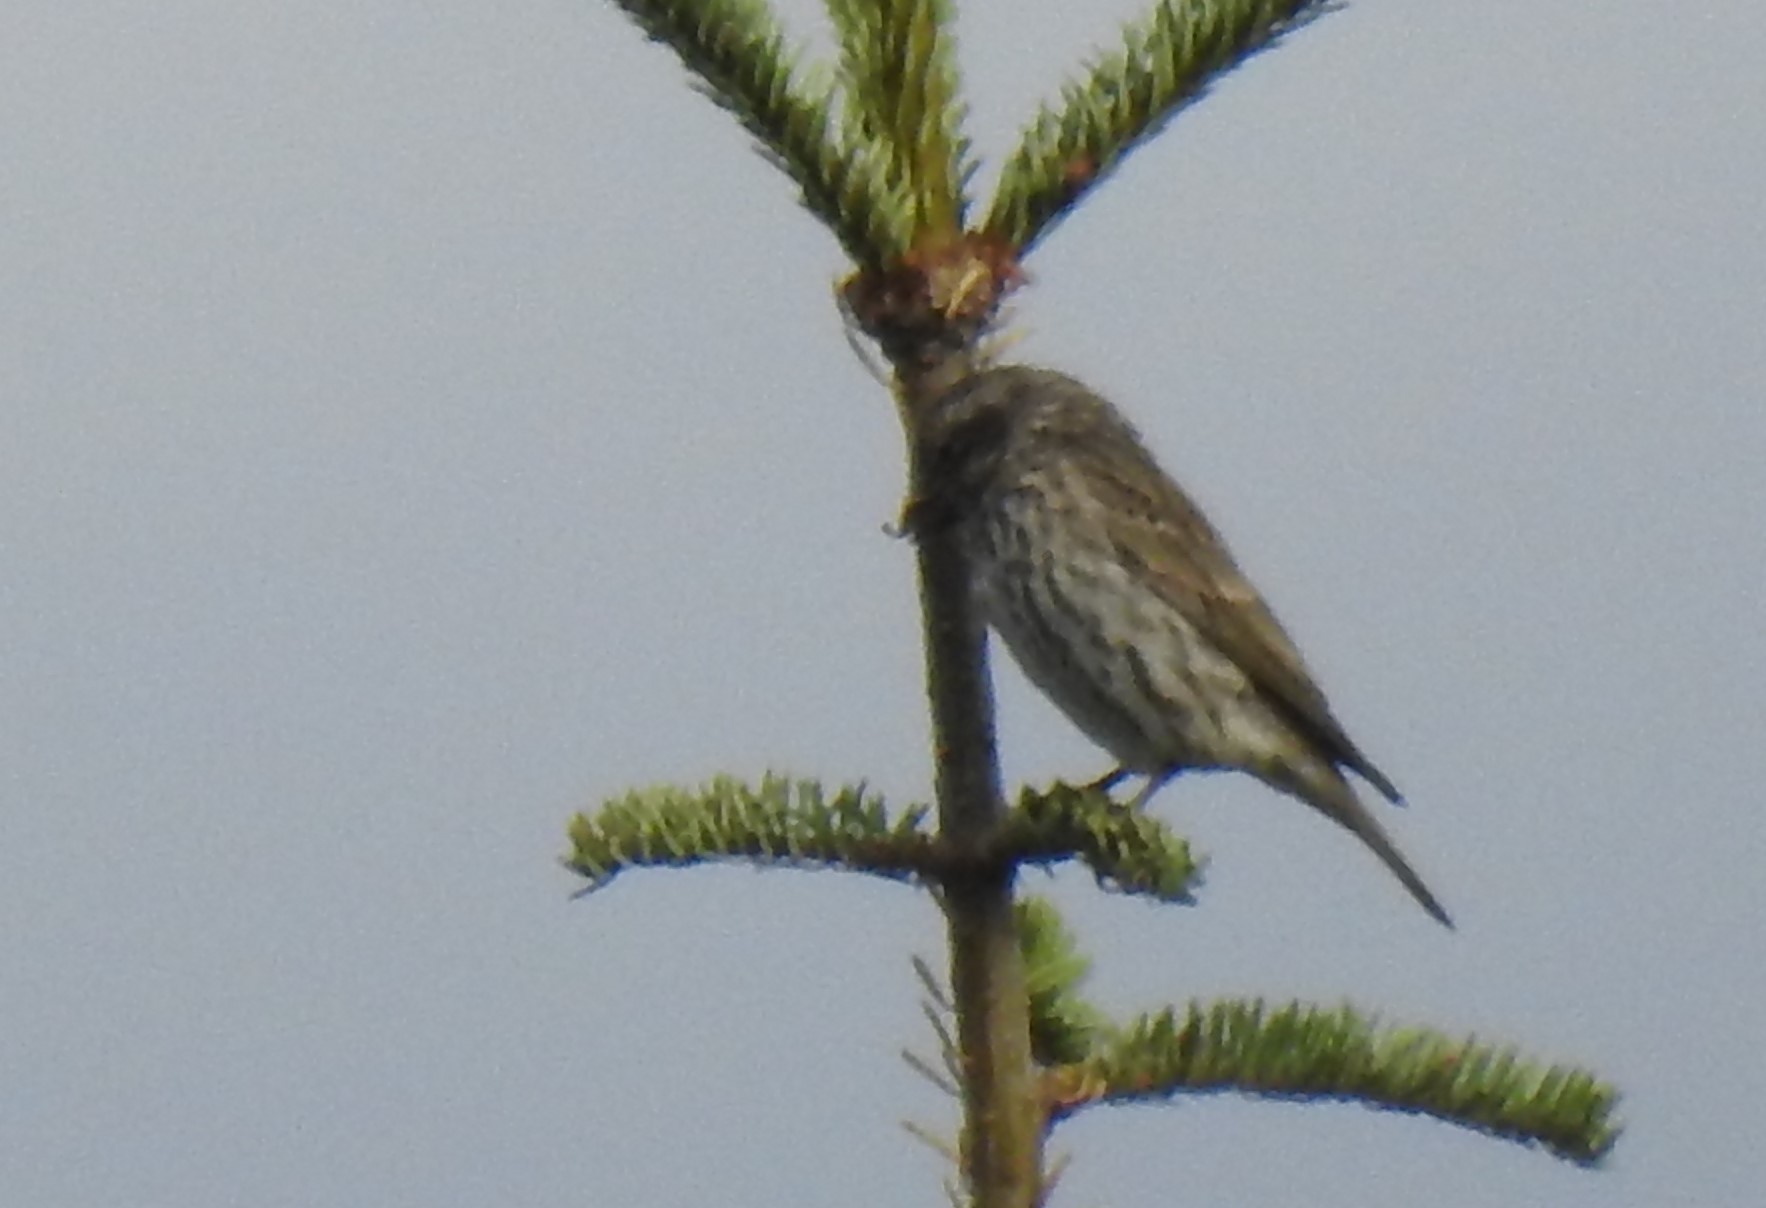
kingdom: Animalia
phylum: Chordata
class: Aves
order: Passeriformes
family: Fringillidae
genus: Haemorhous
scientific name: Haemorhous cassinii
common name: Cassin's finch
